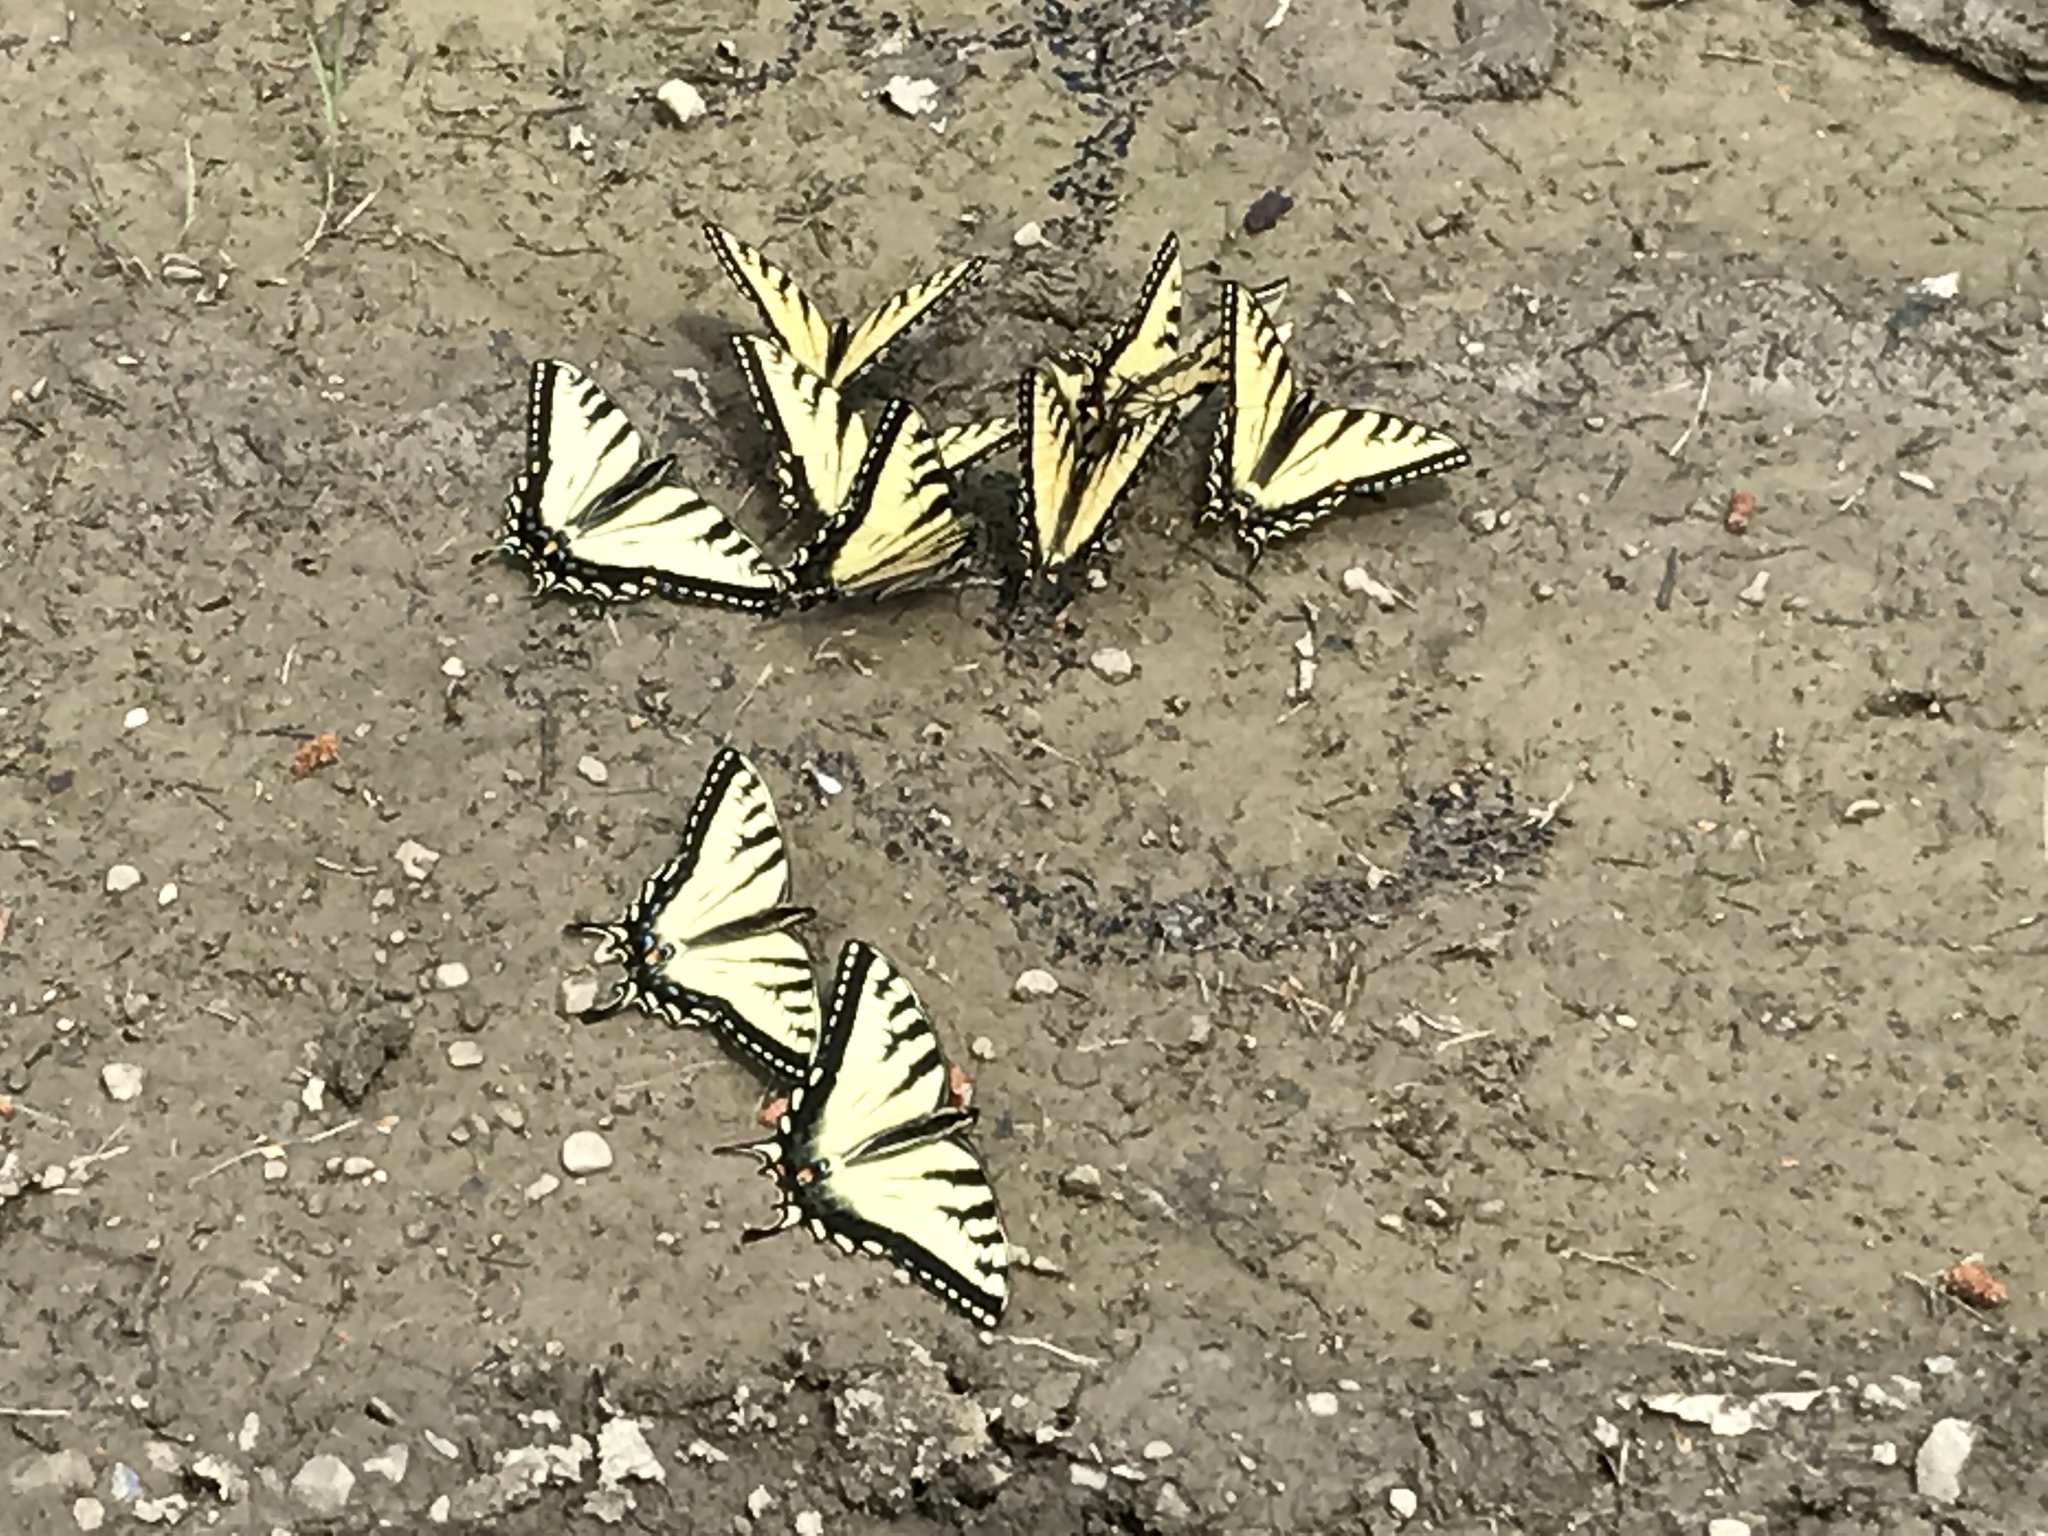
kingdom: Animalia
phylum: Arthropoda
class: Insecta
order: Lepidoptera
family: Papilionidae
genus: Papilio
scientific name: Papilio glaucus
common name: Tiger swallowtail
